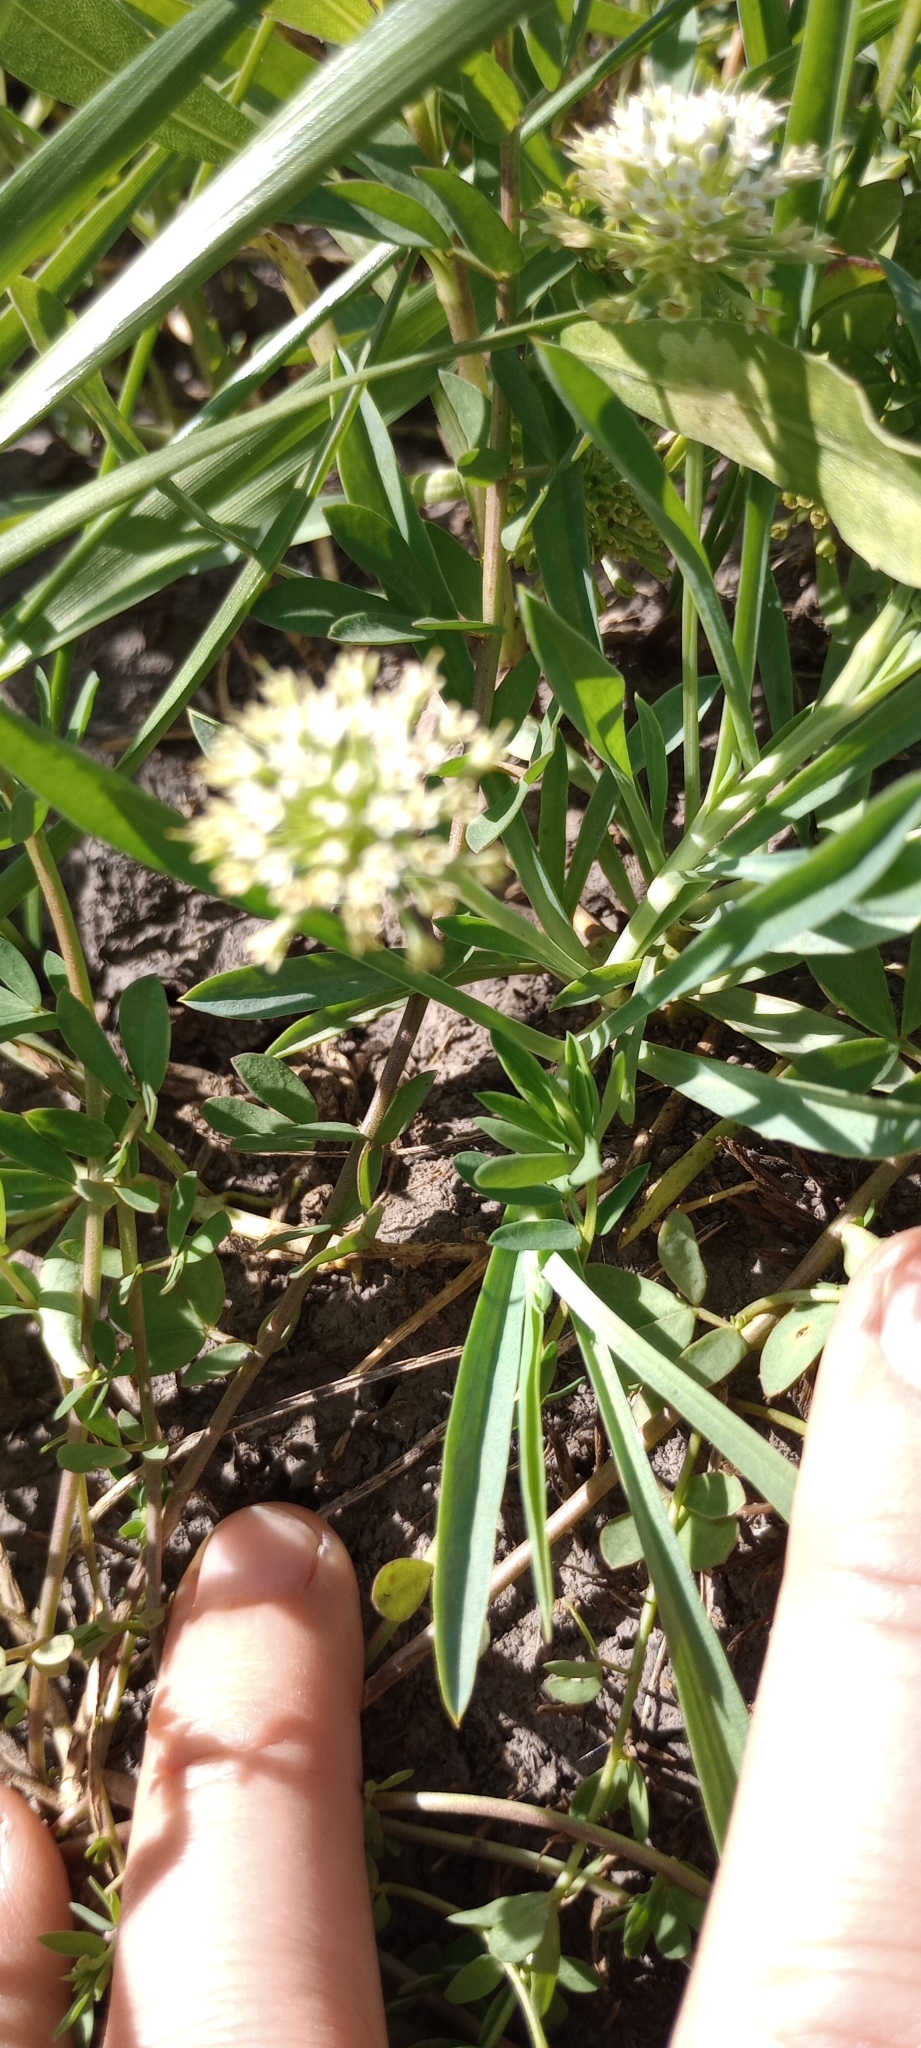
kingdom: Plantae
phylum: Tracheophyta
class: Magnoliopsida
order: Asterales
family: Calyceraceae
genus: Acicarpha
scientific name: Acicarpha procumbens
